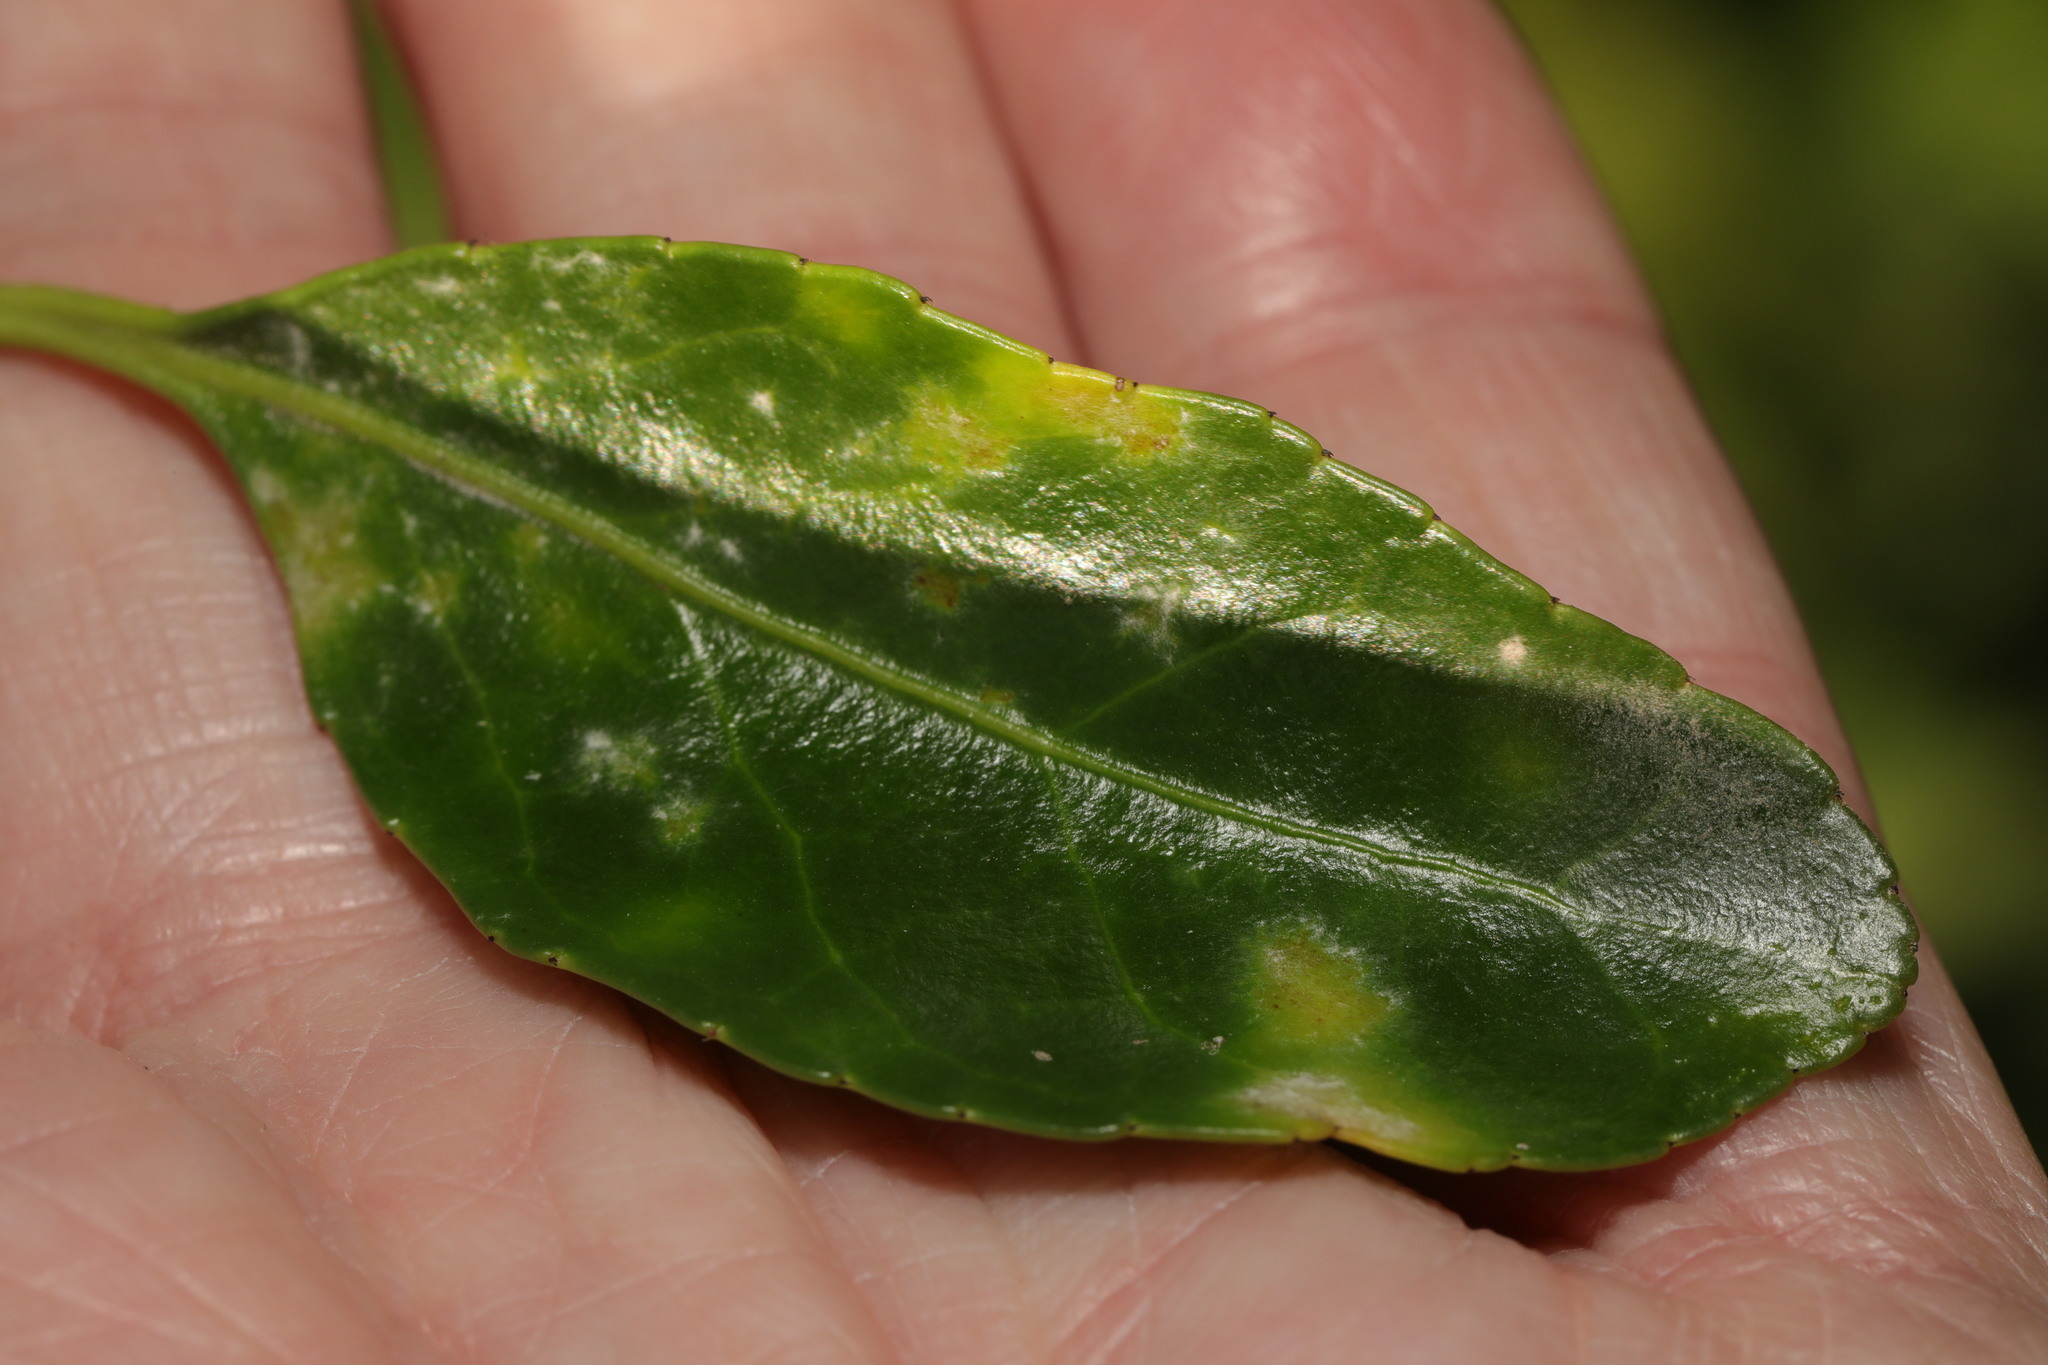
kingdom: Fungi
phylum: Ascomycota
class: Leotiomycetes
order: Helotiales
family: Erysiphaceae
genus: Erysiphe
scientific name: Erysiphe euonymicola
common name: Spindletree mildew
